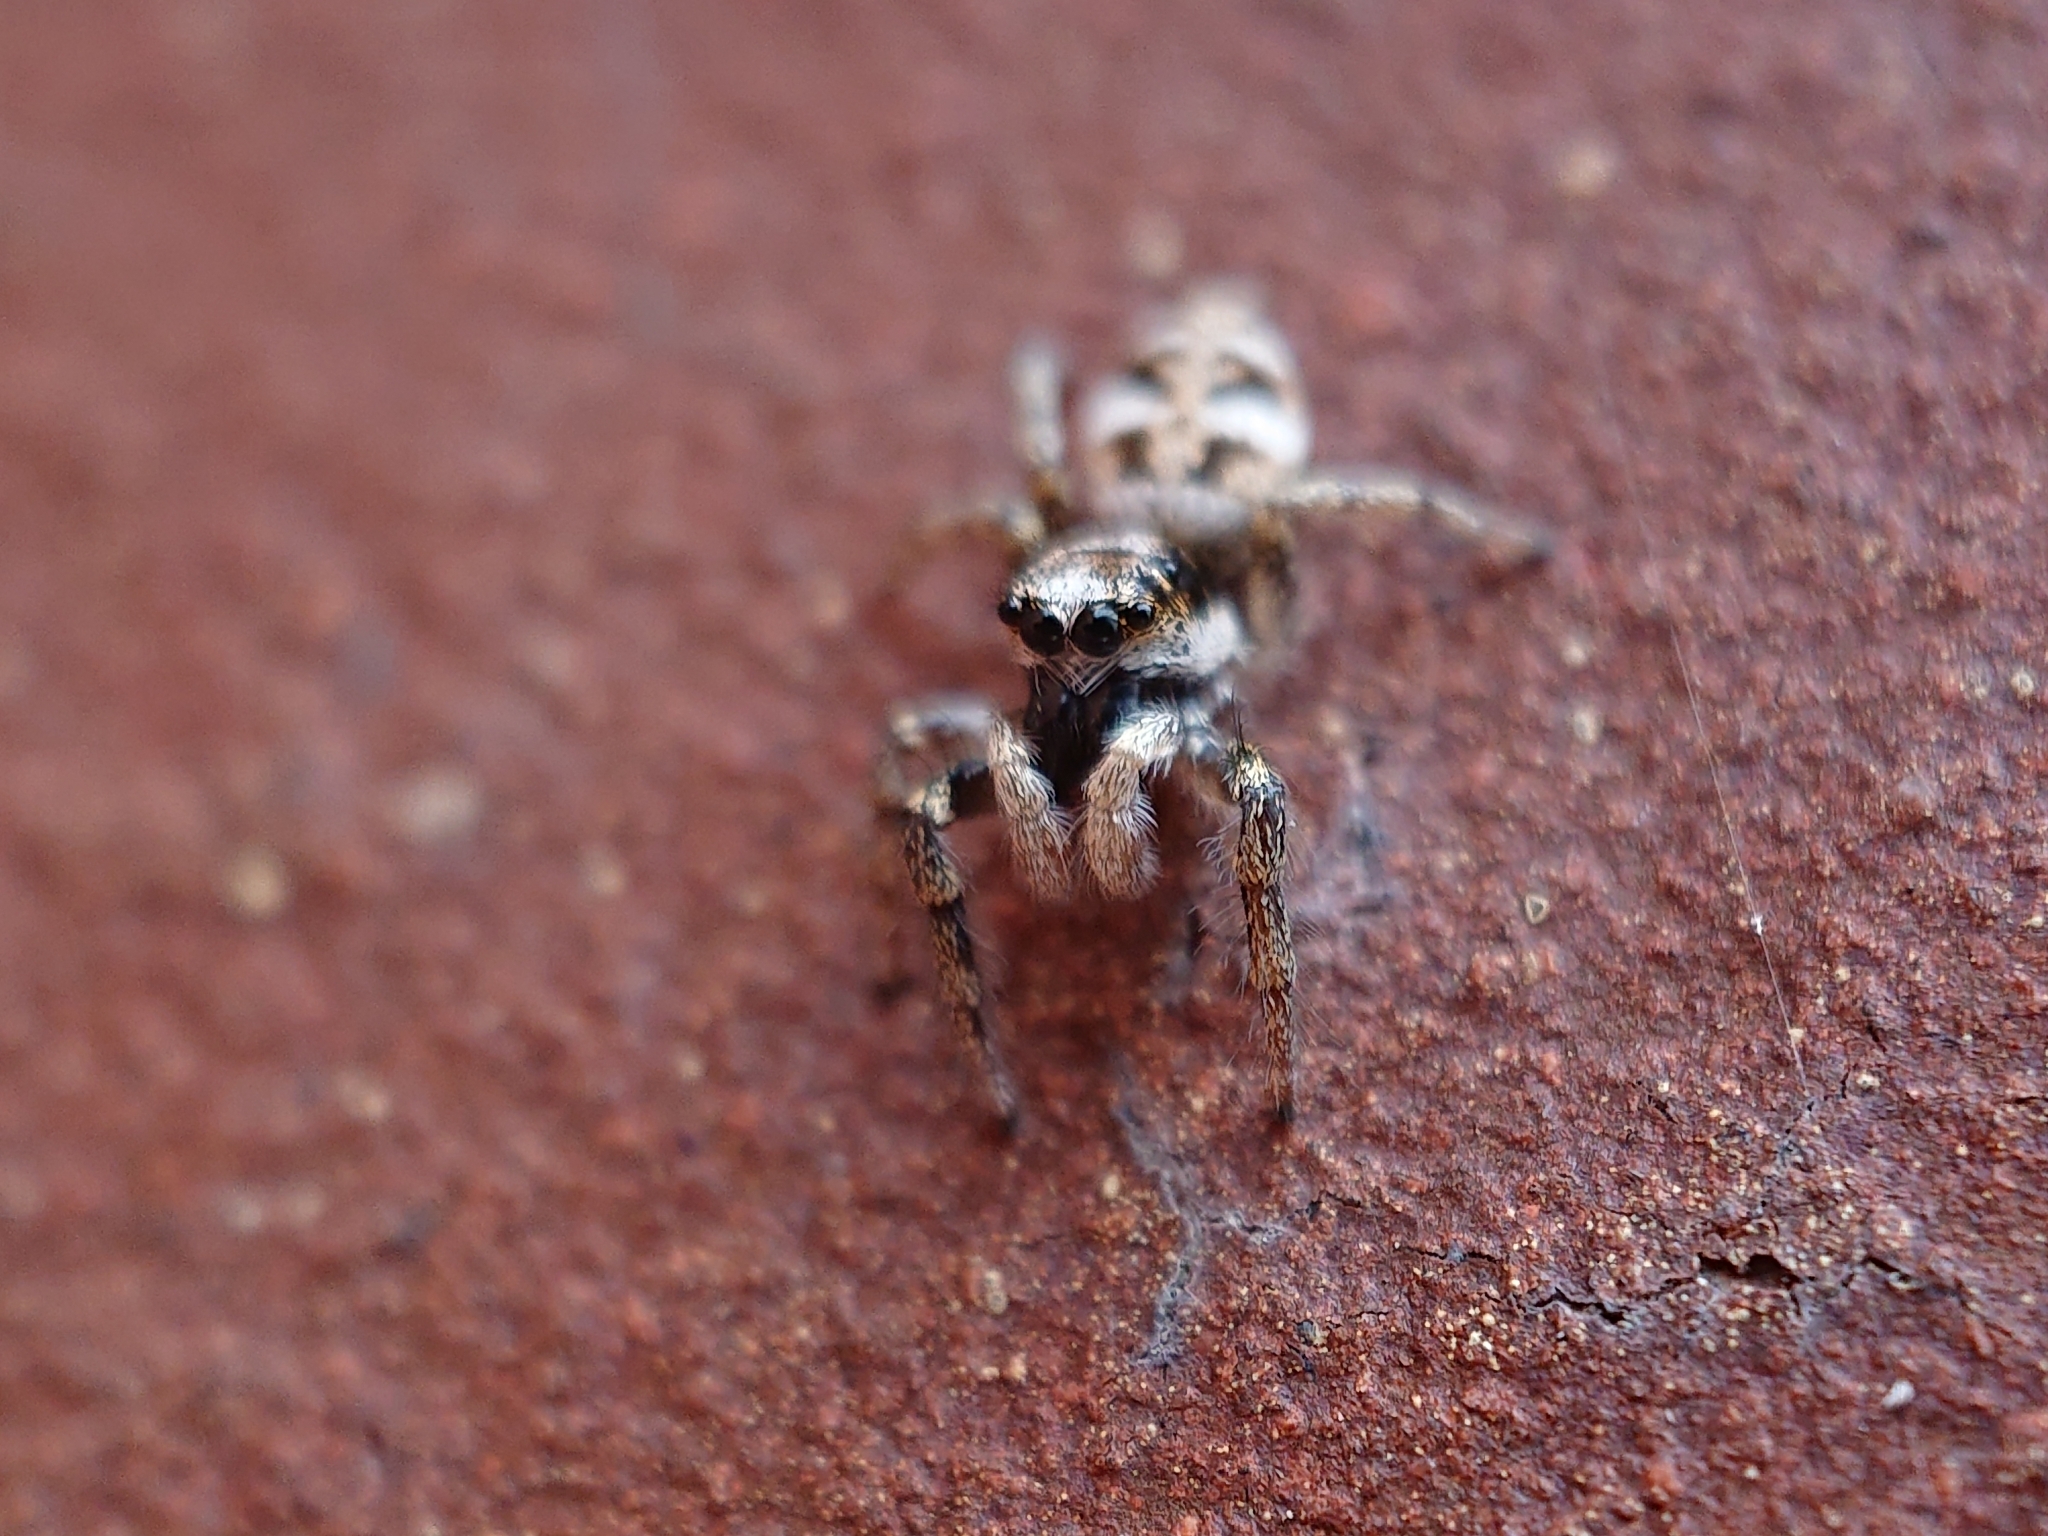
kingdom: Animalia
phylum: Arthropoda
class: Arachnida
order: Araneae
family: Salticidae
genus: Salticus
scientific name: Salticus scenicus
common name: Zebra jumper
